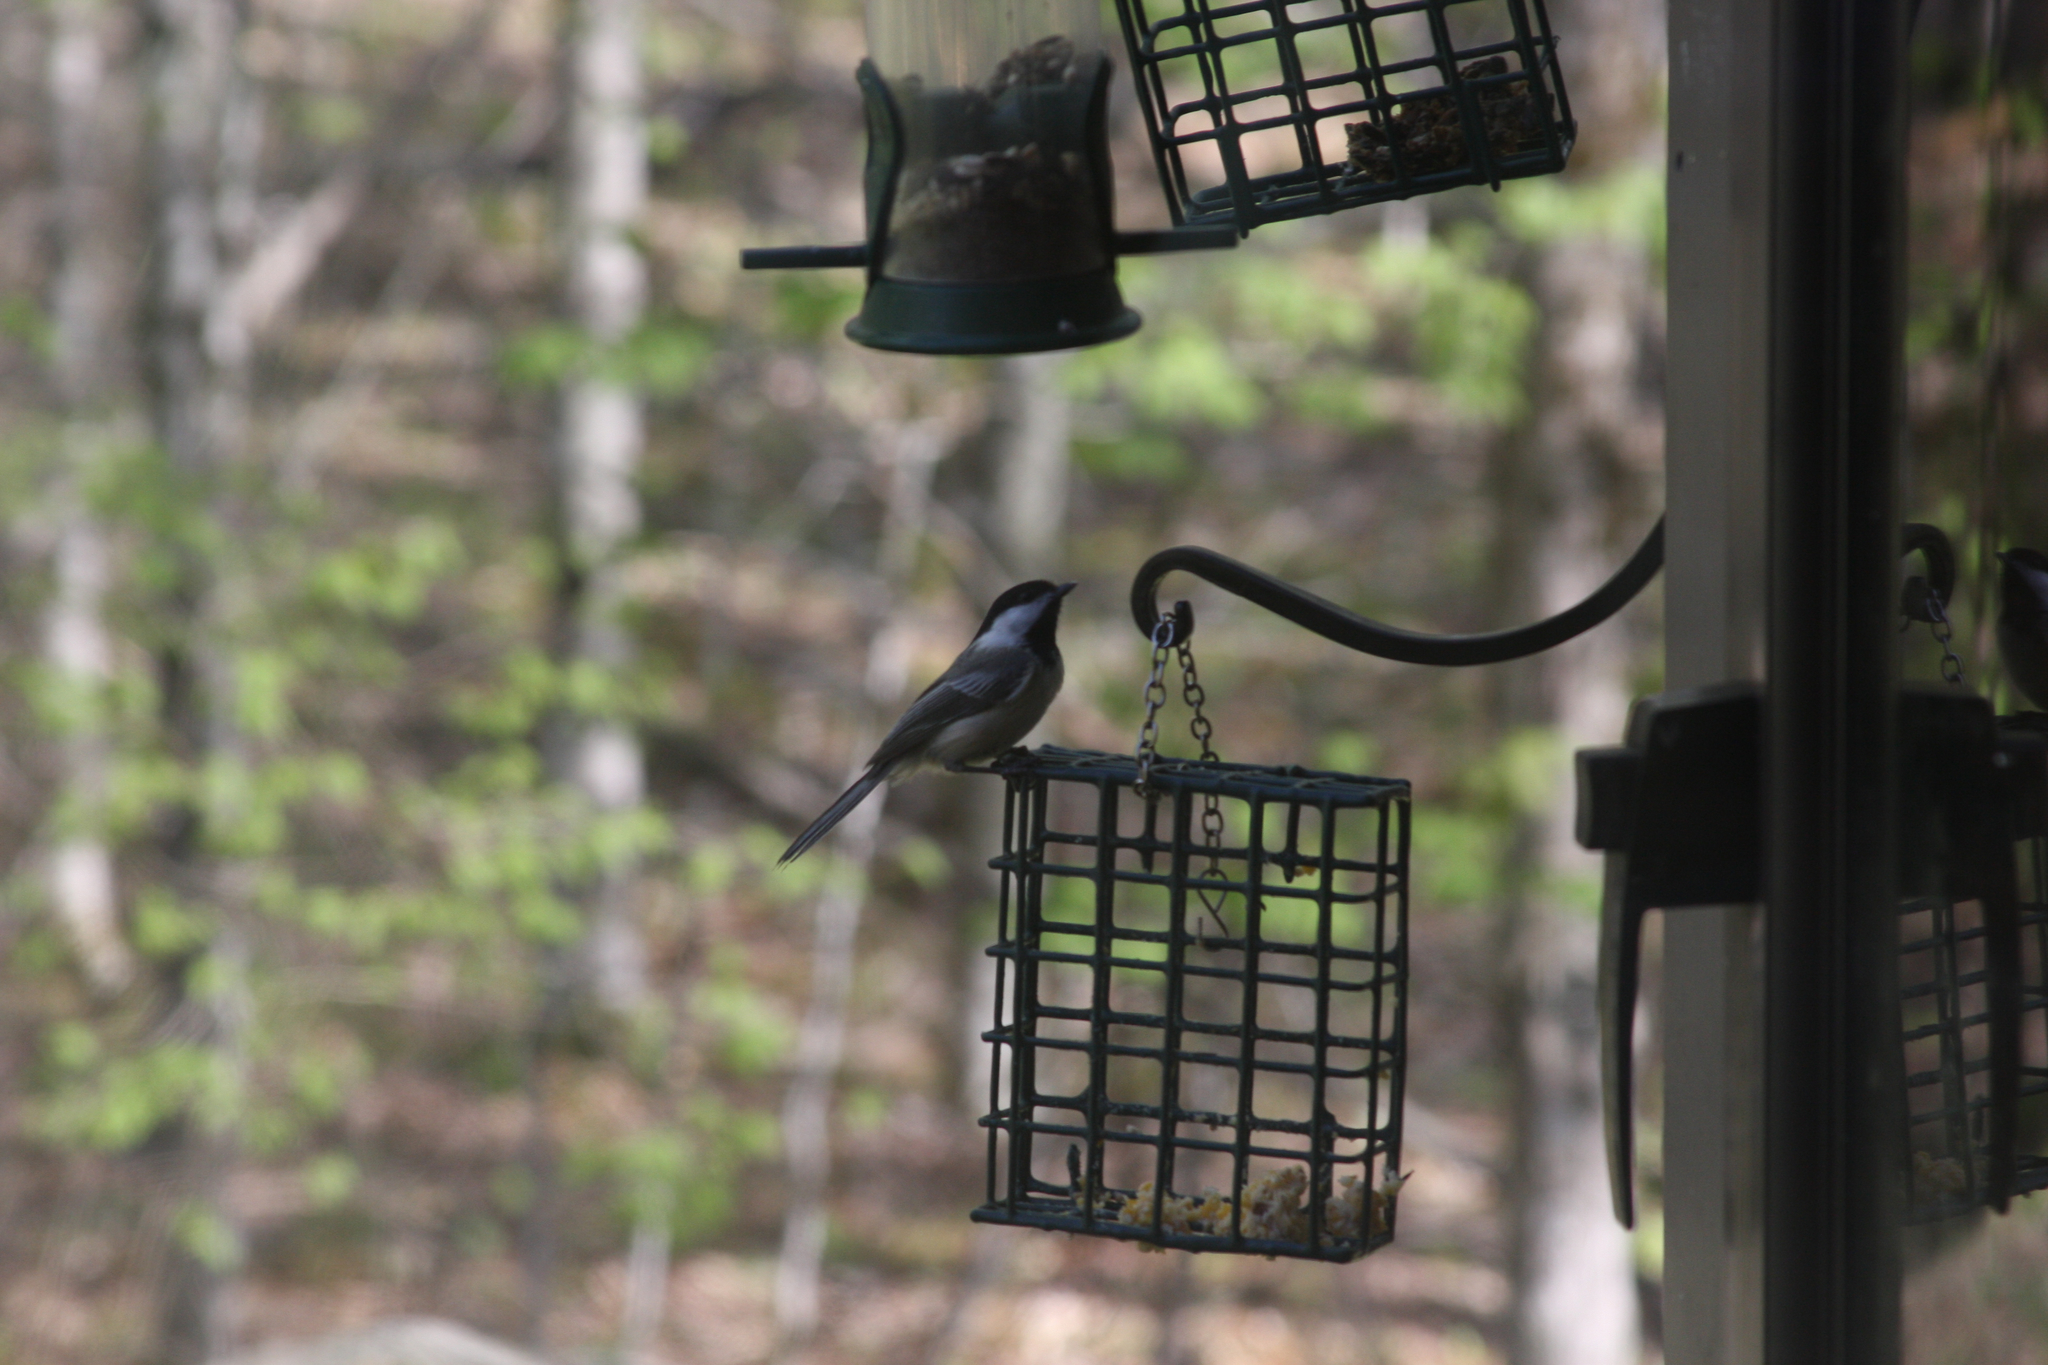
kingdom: Animalia
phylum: Chordata
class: Aves
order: Passeriformes
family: Paridae
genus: Poecile
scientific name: Poecile atricapillus
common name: Black-capped chickadee
